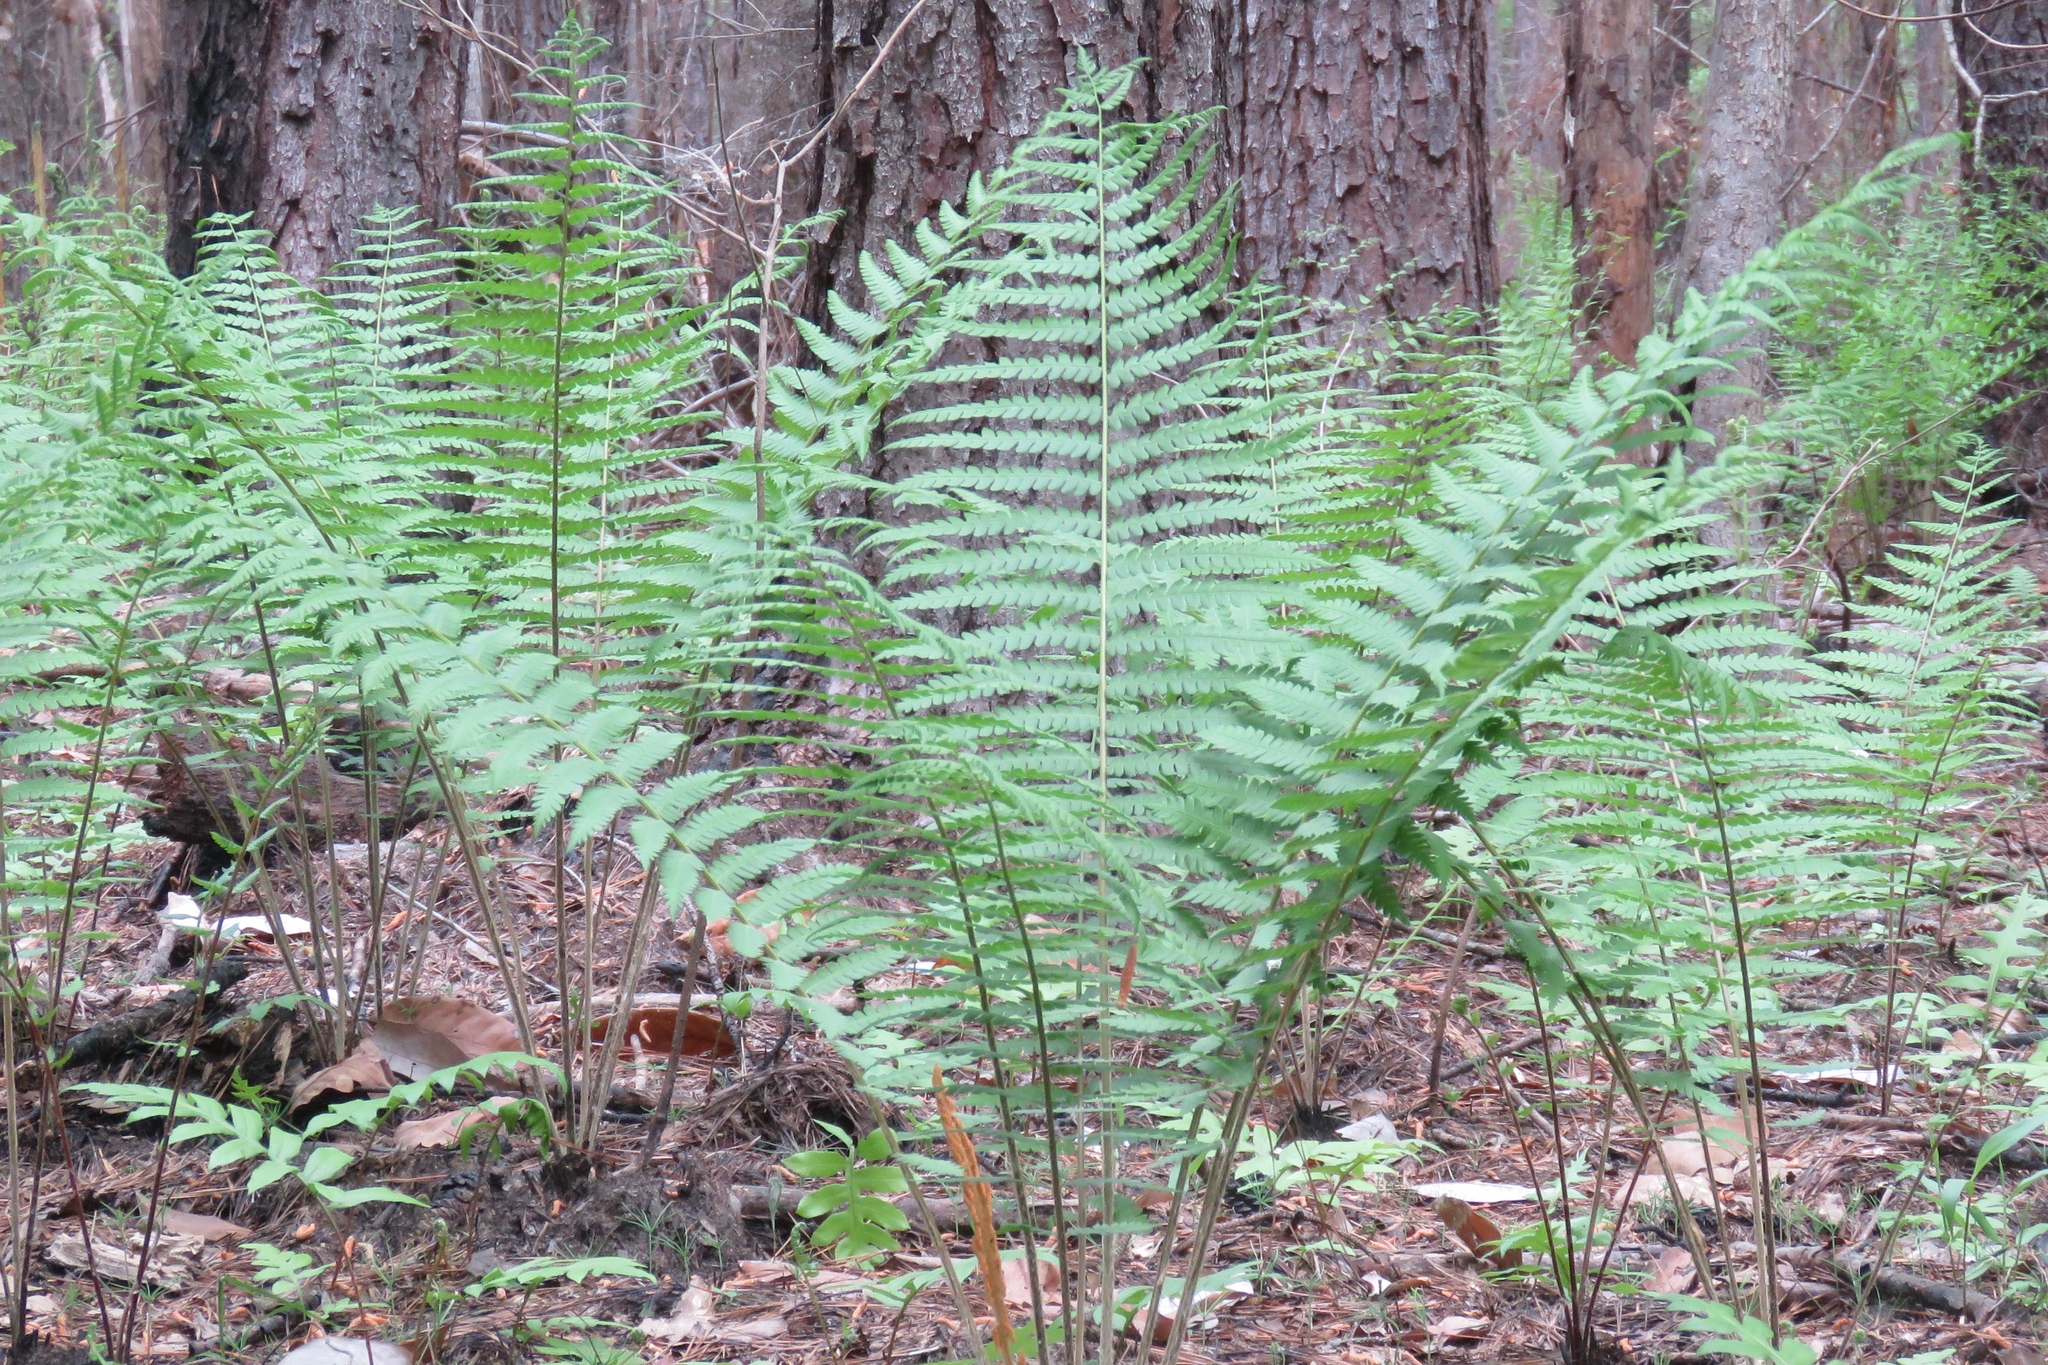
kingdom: Plantae
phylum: Tracheophyta
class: Polypodiopsida
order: Osmundales
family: Osmundaceae
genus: Osmundastrum
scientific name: Osmundastrum cinnamomeum
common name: Cinnamon fern
